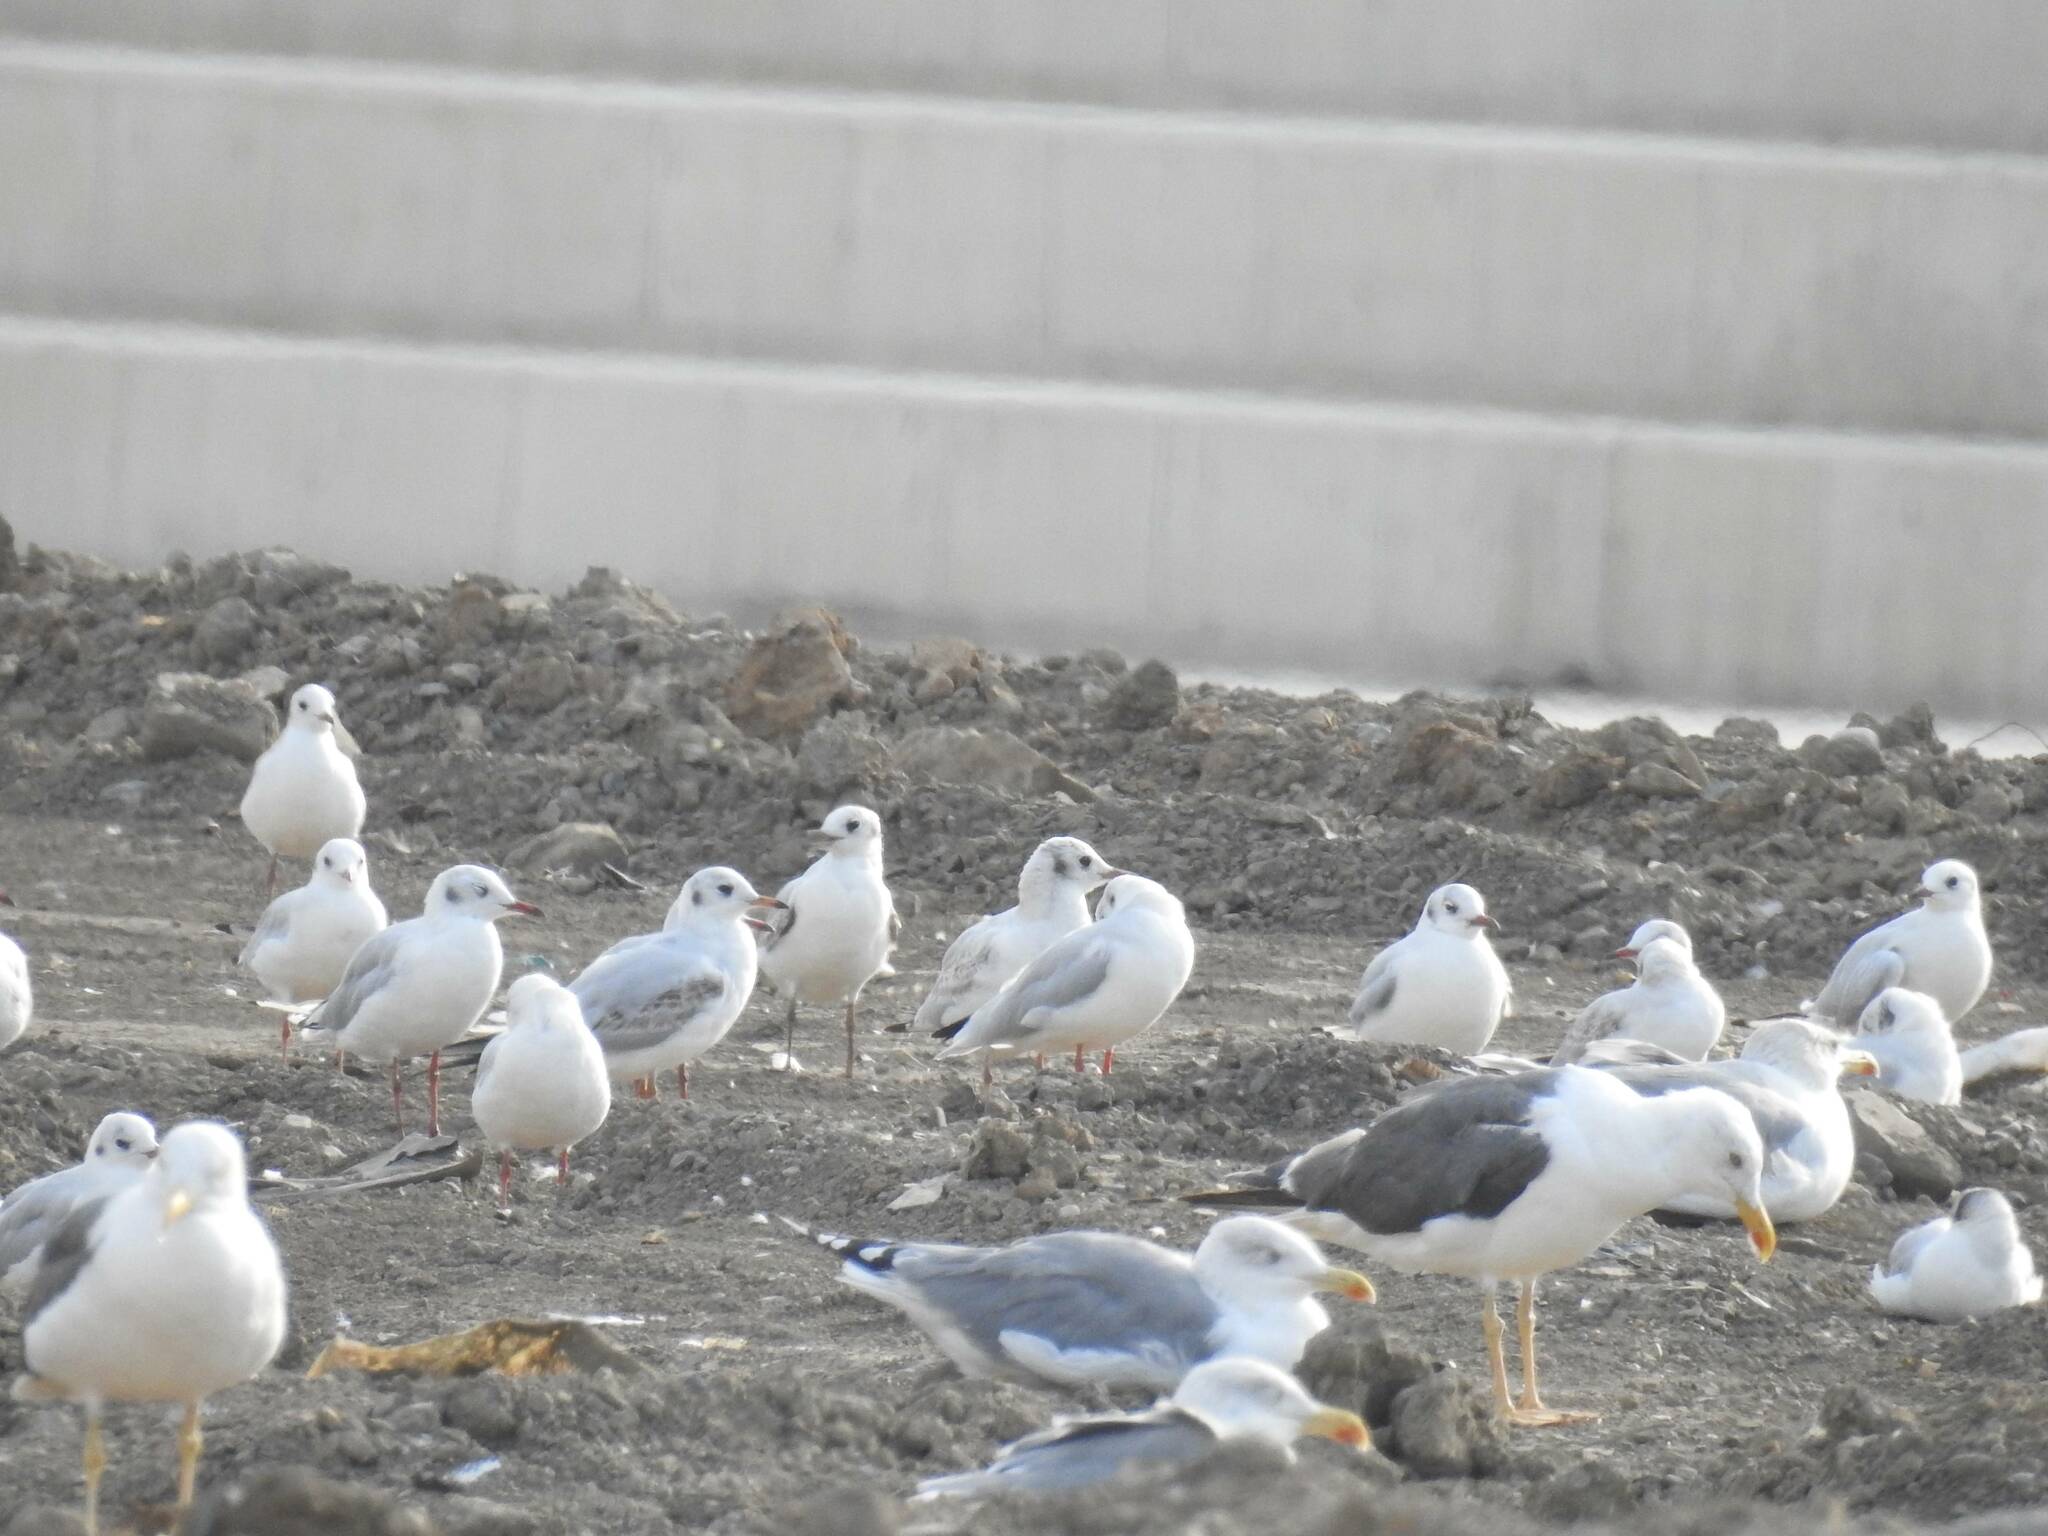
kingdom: Animalia
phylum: Chordata
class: Aves
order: Charadriiformes
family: Laridae
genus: Chroicocephalus
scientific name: Chroicocephalus ridibundus
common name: Black-headed gull
